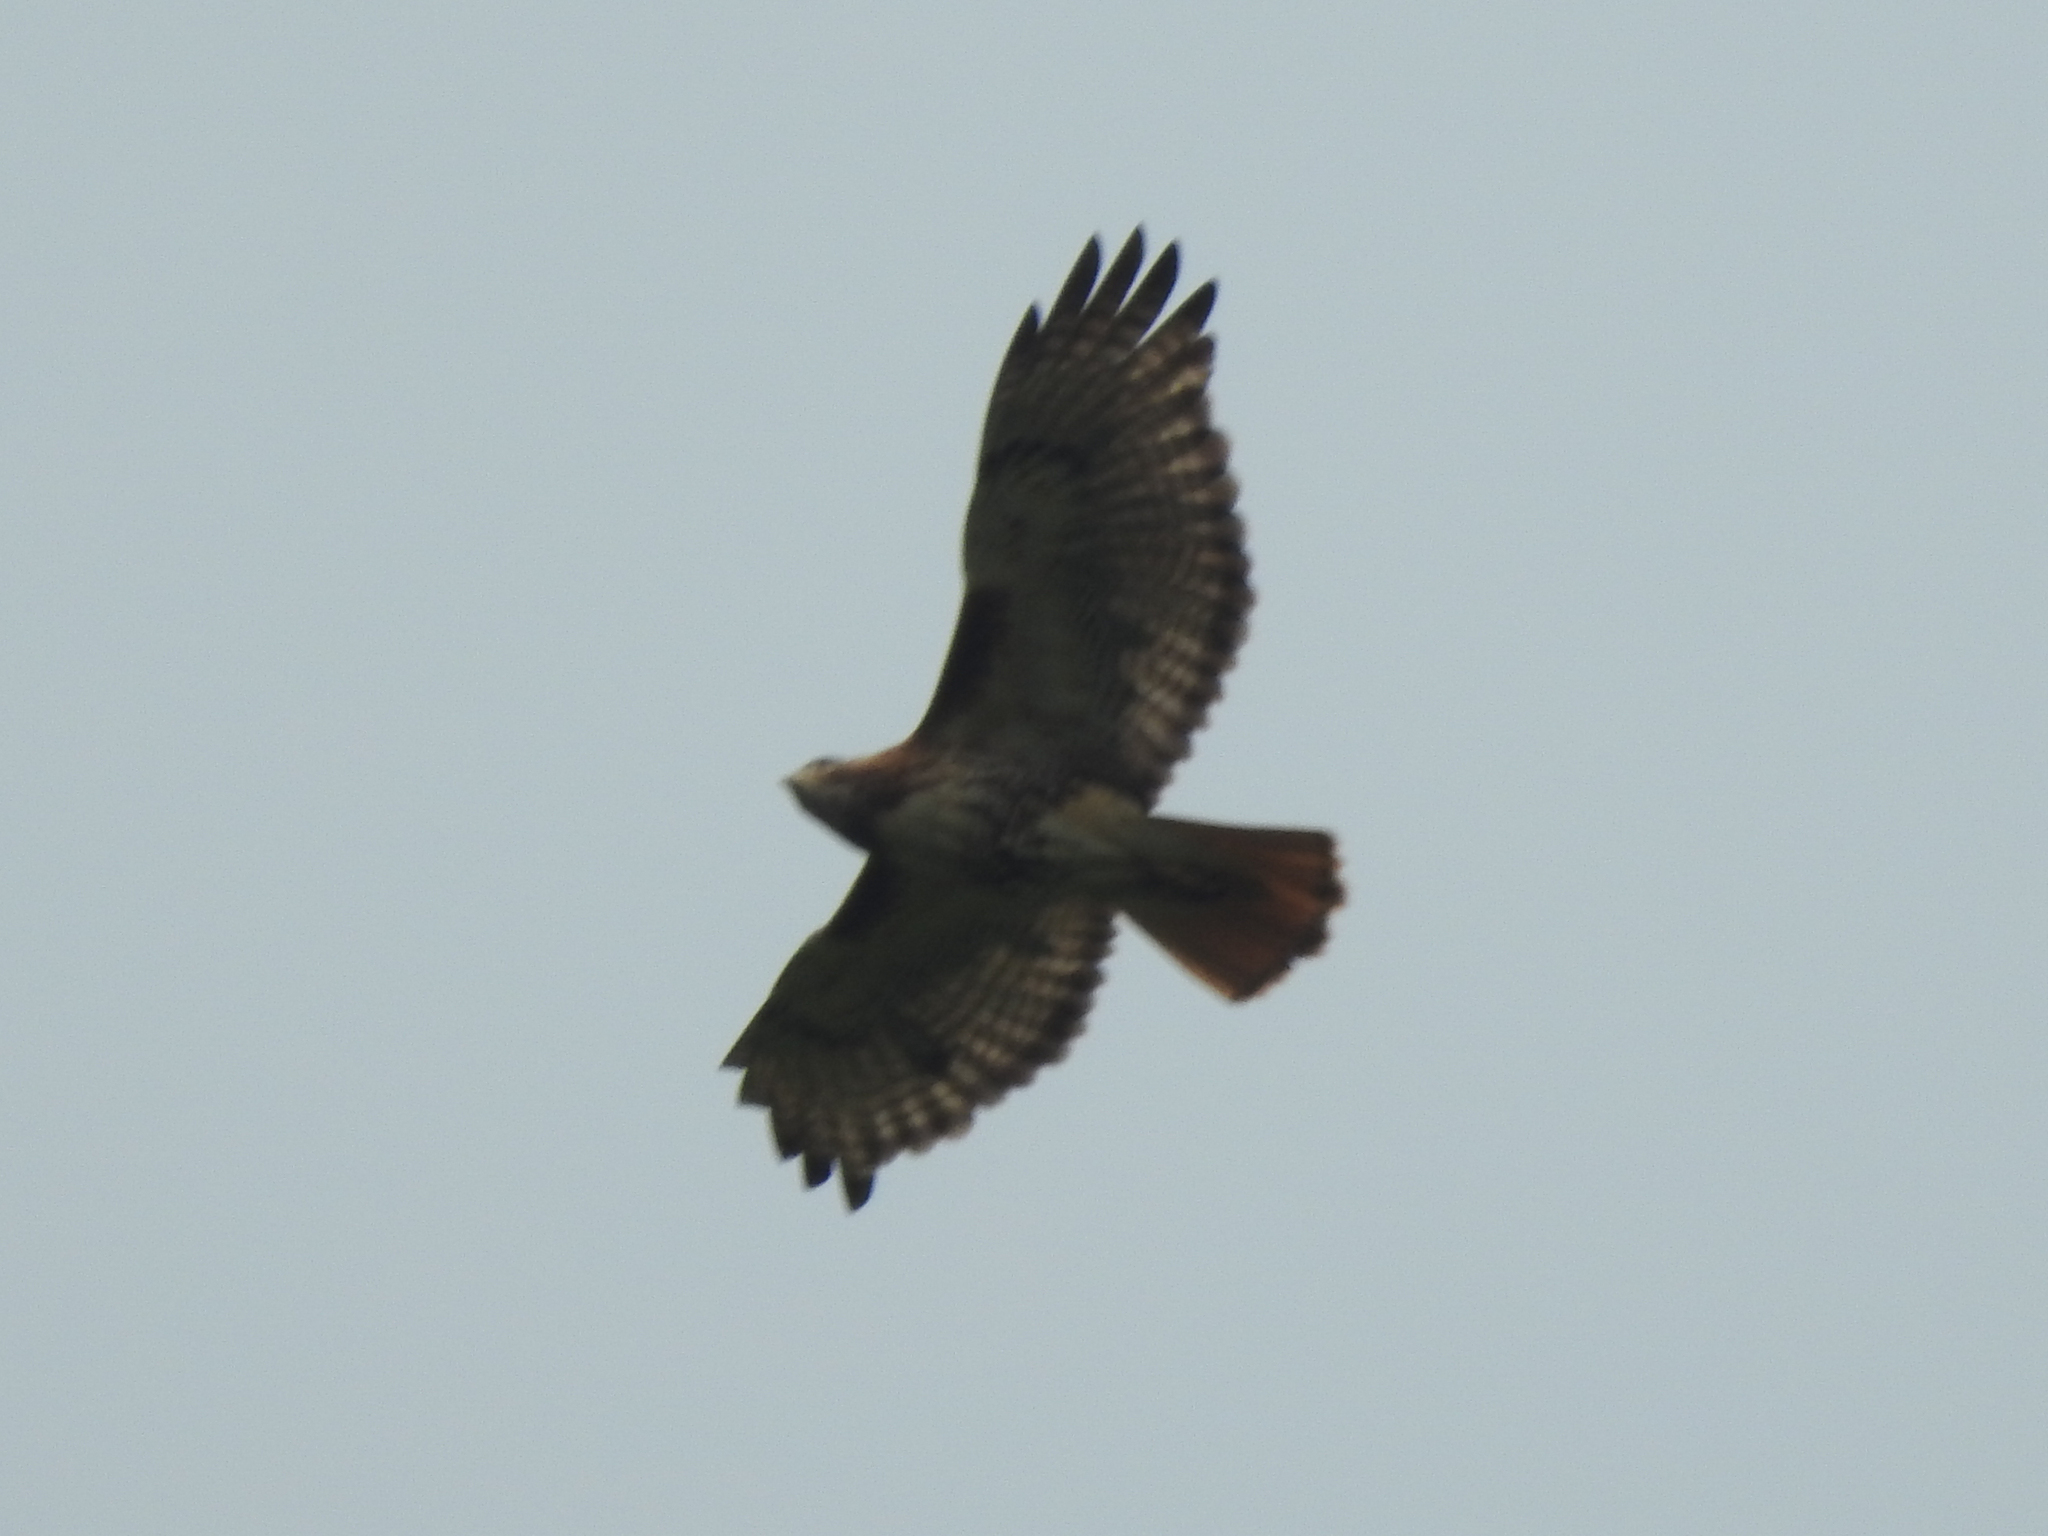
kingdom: Animalia
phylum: Chordata
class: Aves
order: Accipitriformes
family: Accipitridae
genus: Buteo
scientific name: Buteo jamaicensis
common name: Red-tailed hawk
